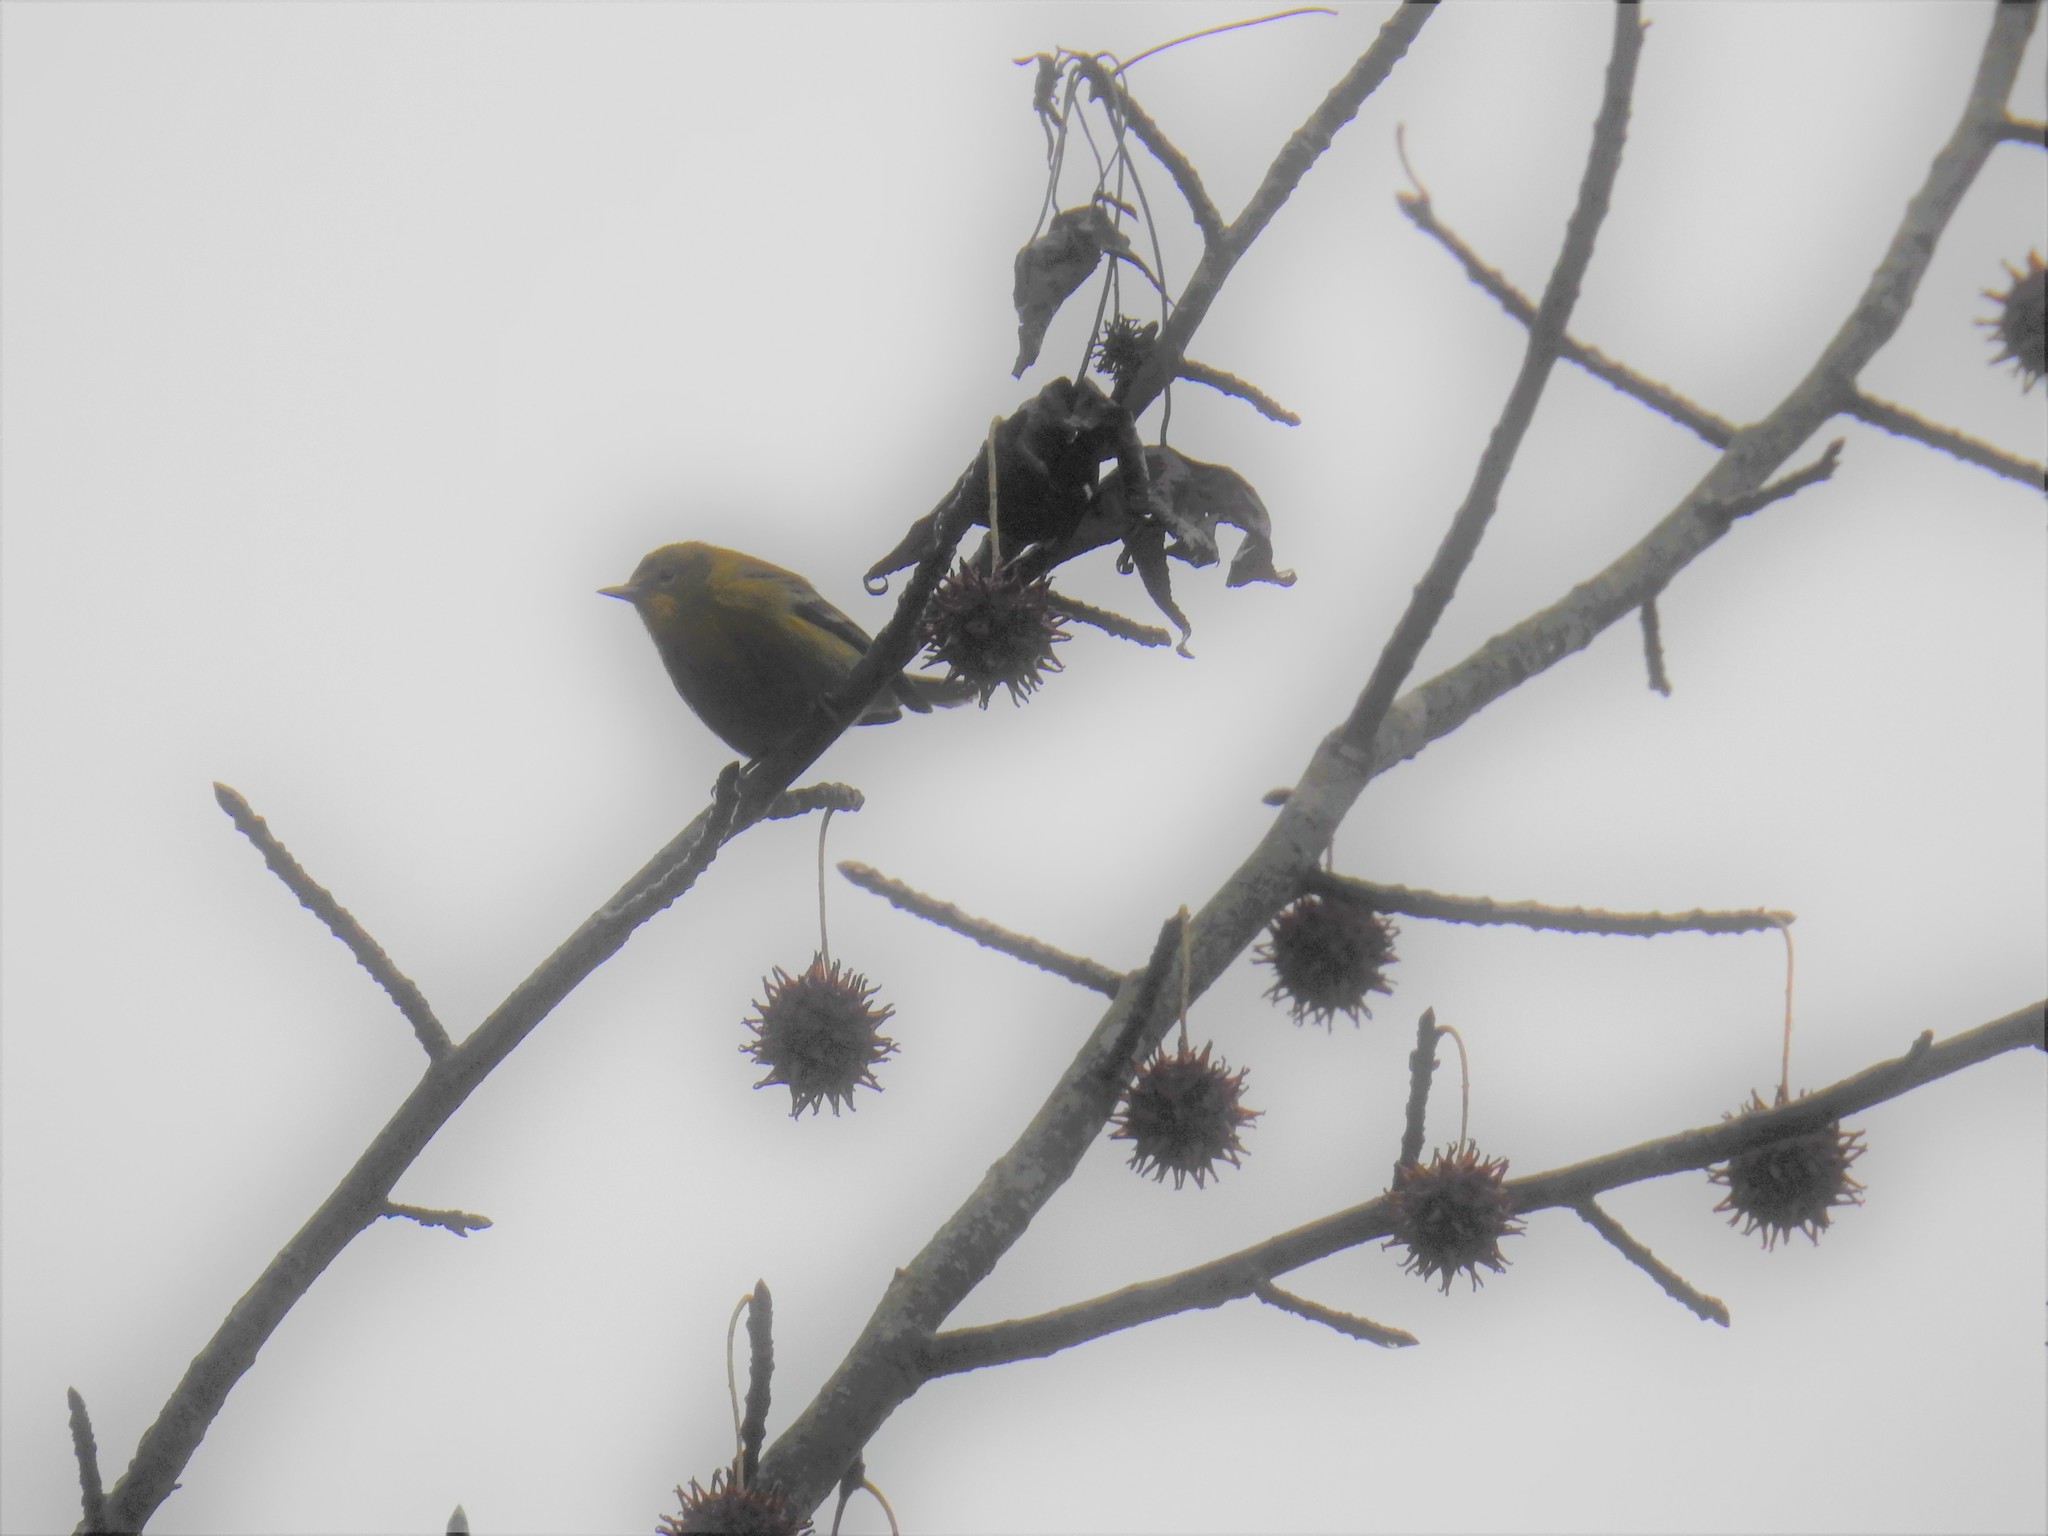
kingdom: Animalia
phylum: Chordata
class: Aves
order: Passeriformes
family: Parulidae
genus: Setophaga
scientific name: Setophaga pinus
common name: Pine warbler
